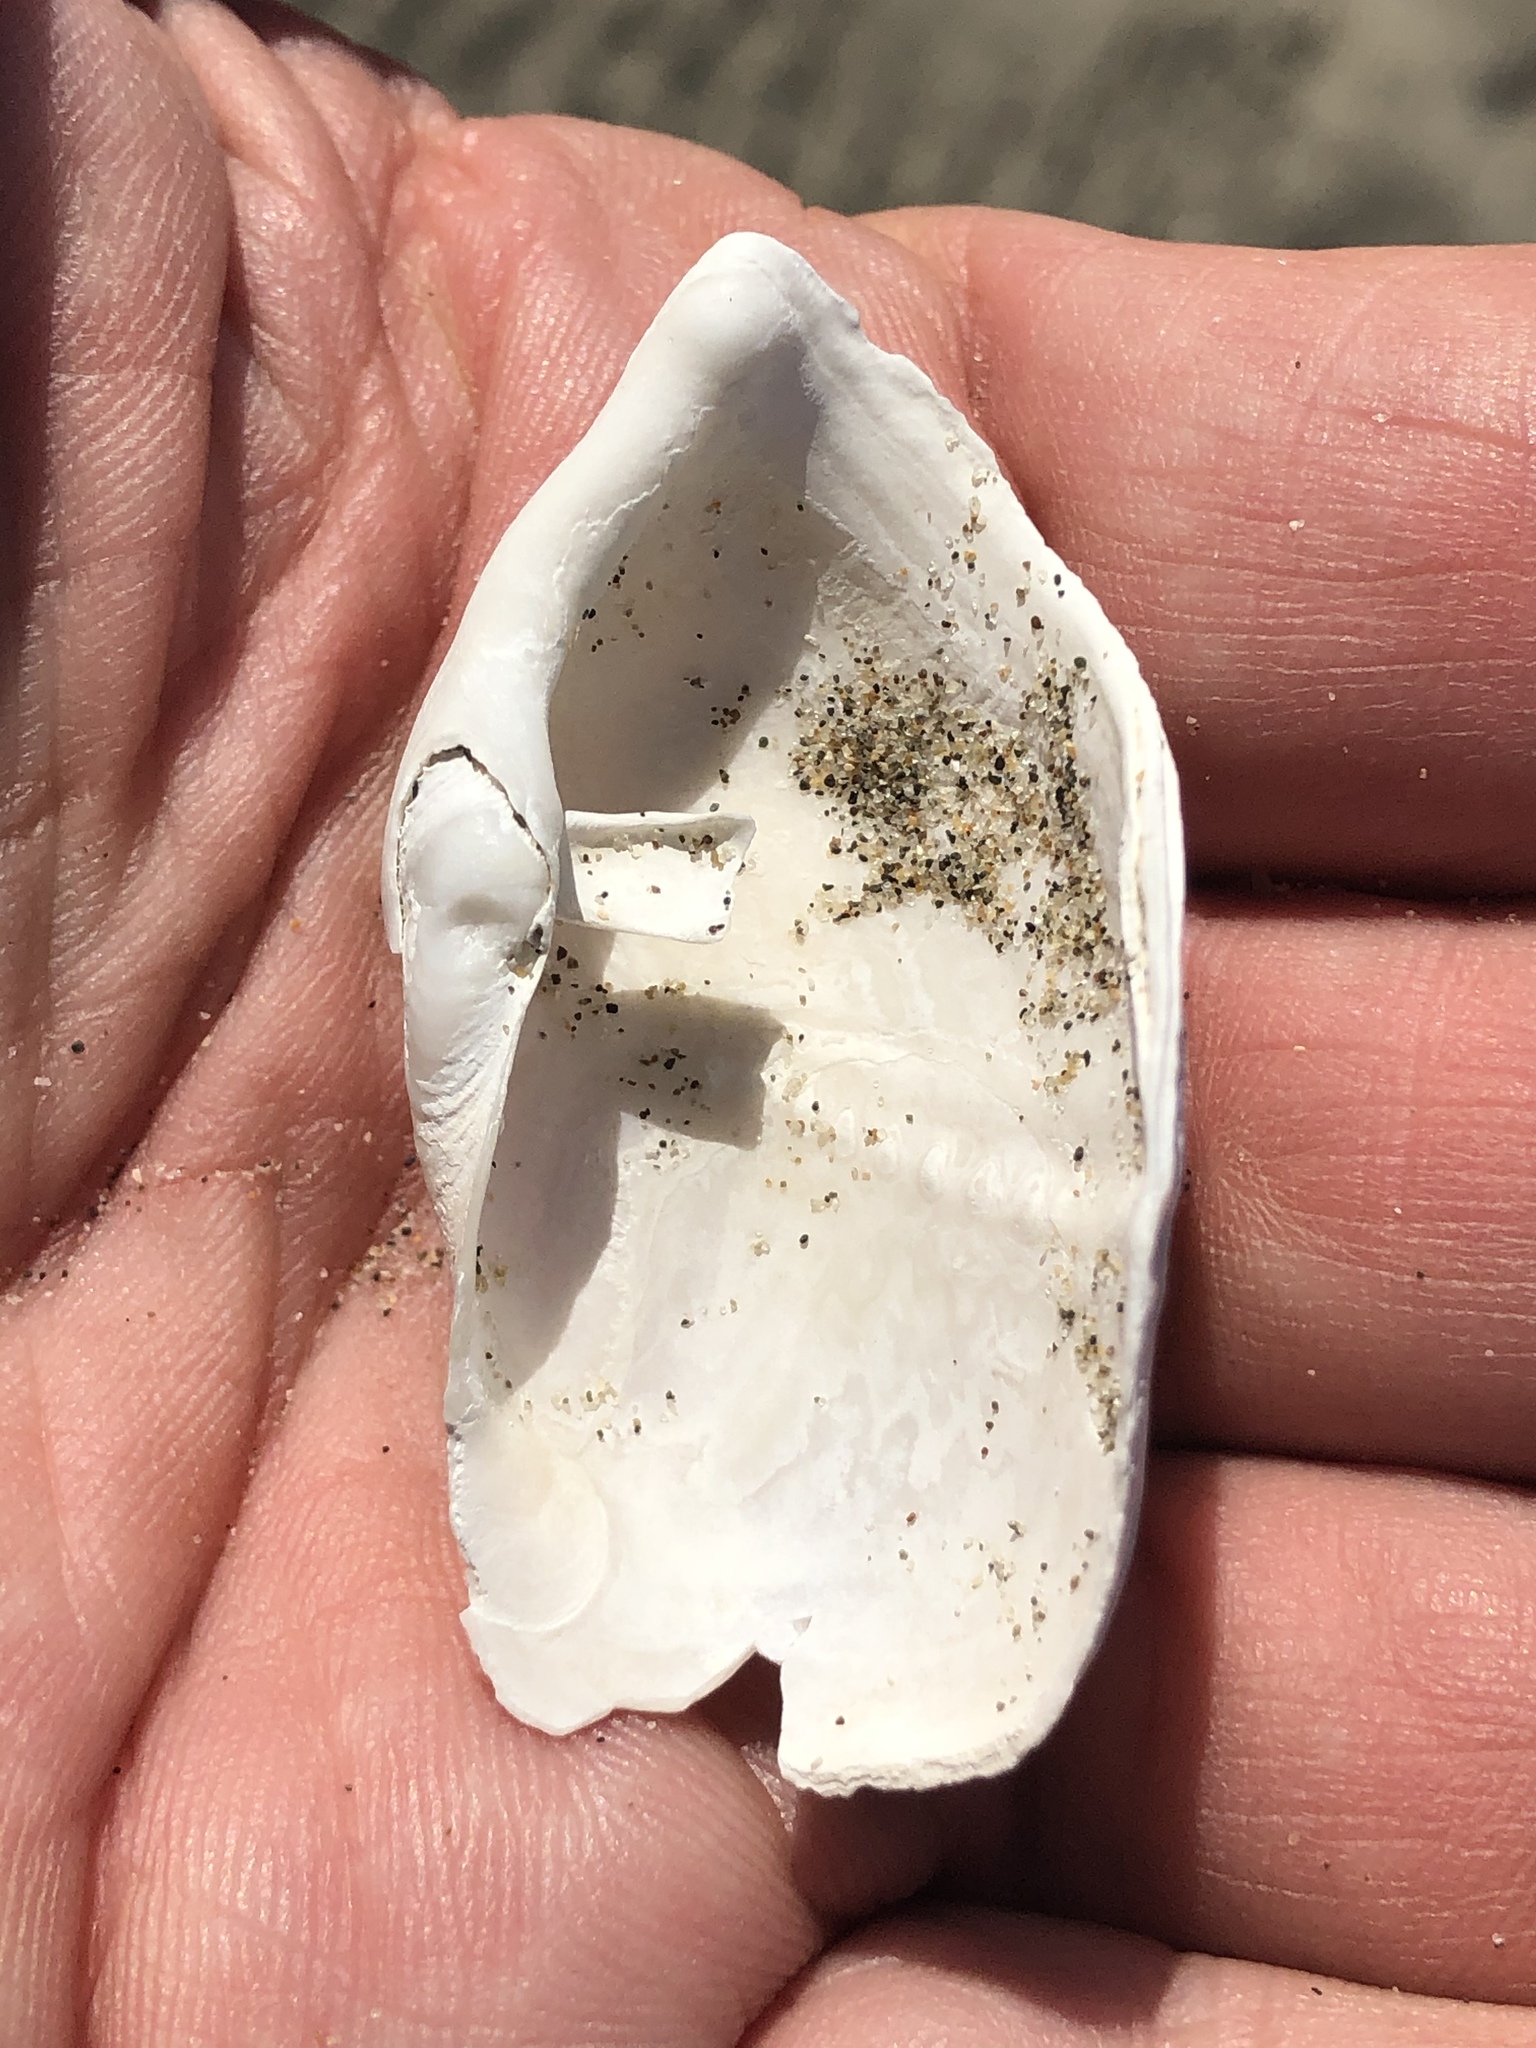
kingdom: Animalia
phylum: Mollusca
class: Bivalvia
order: Myida
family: Pholadidae
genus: Zirfaea
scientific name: Zirfaea pilsbryi
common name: Rough piddock
